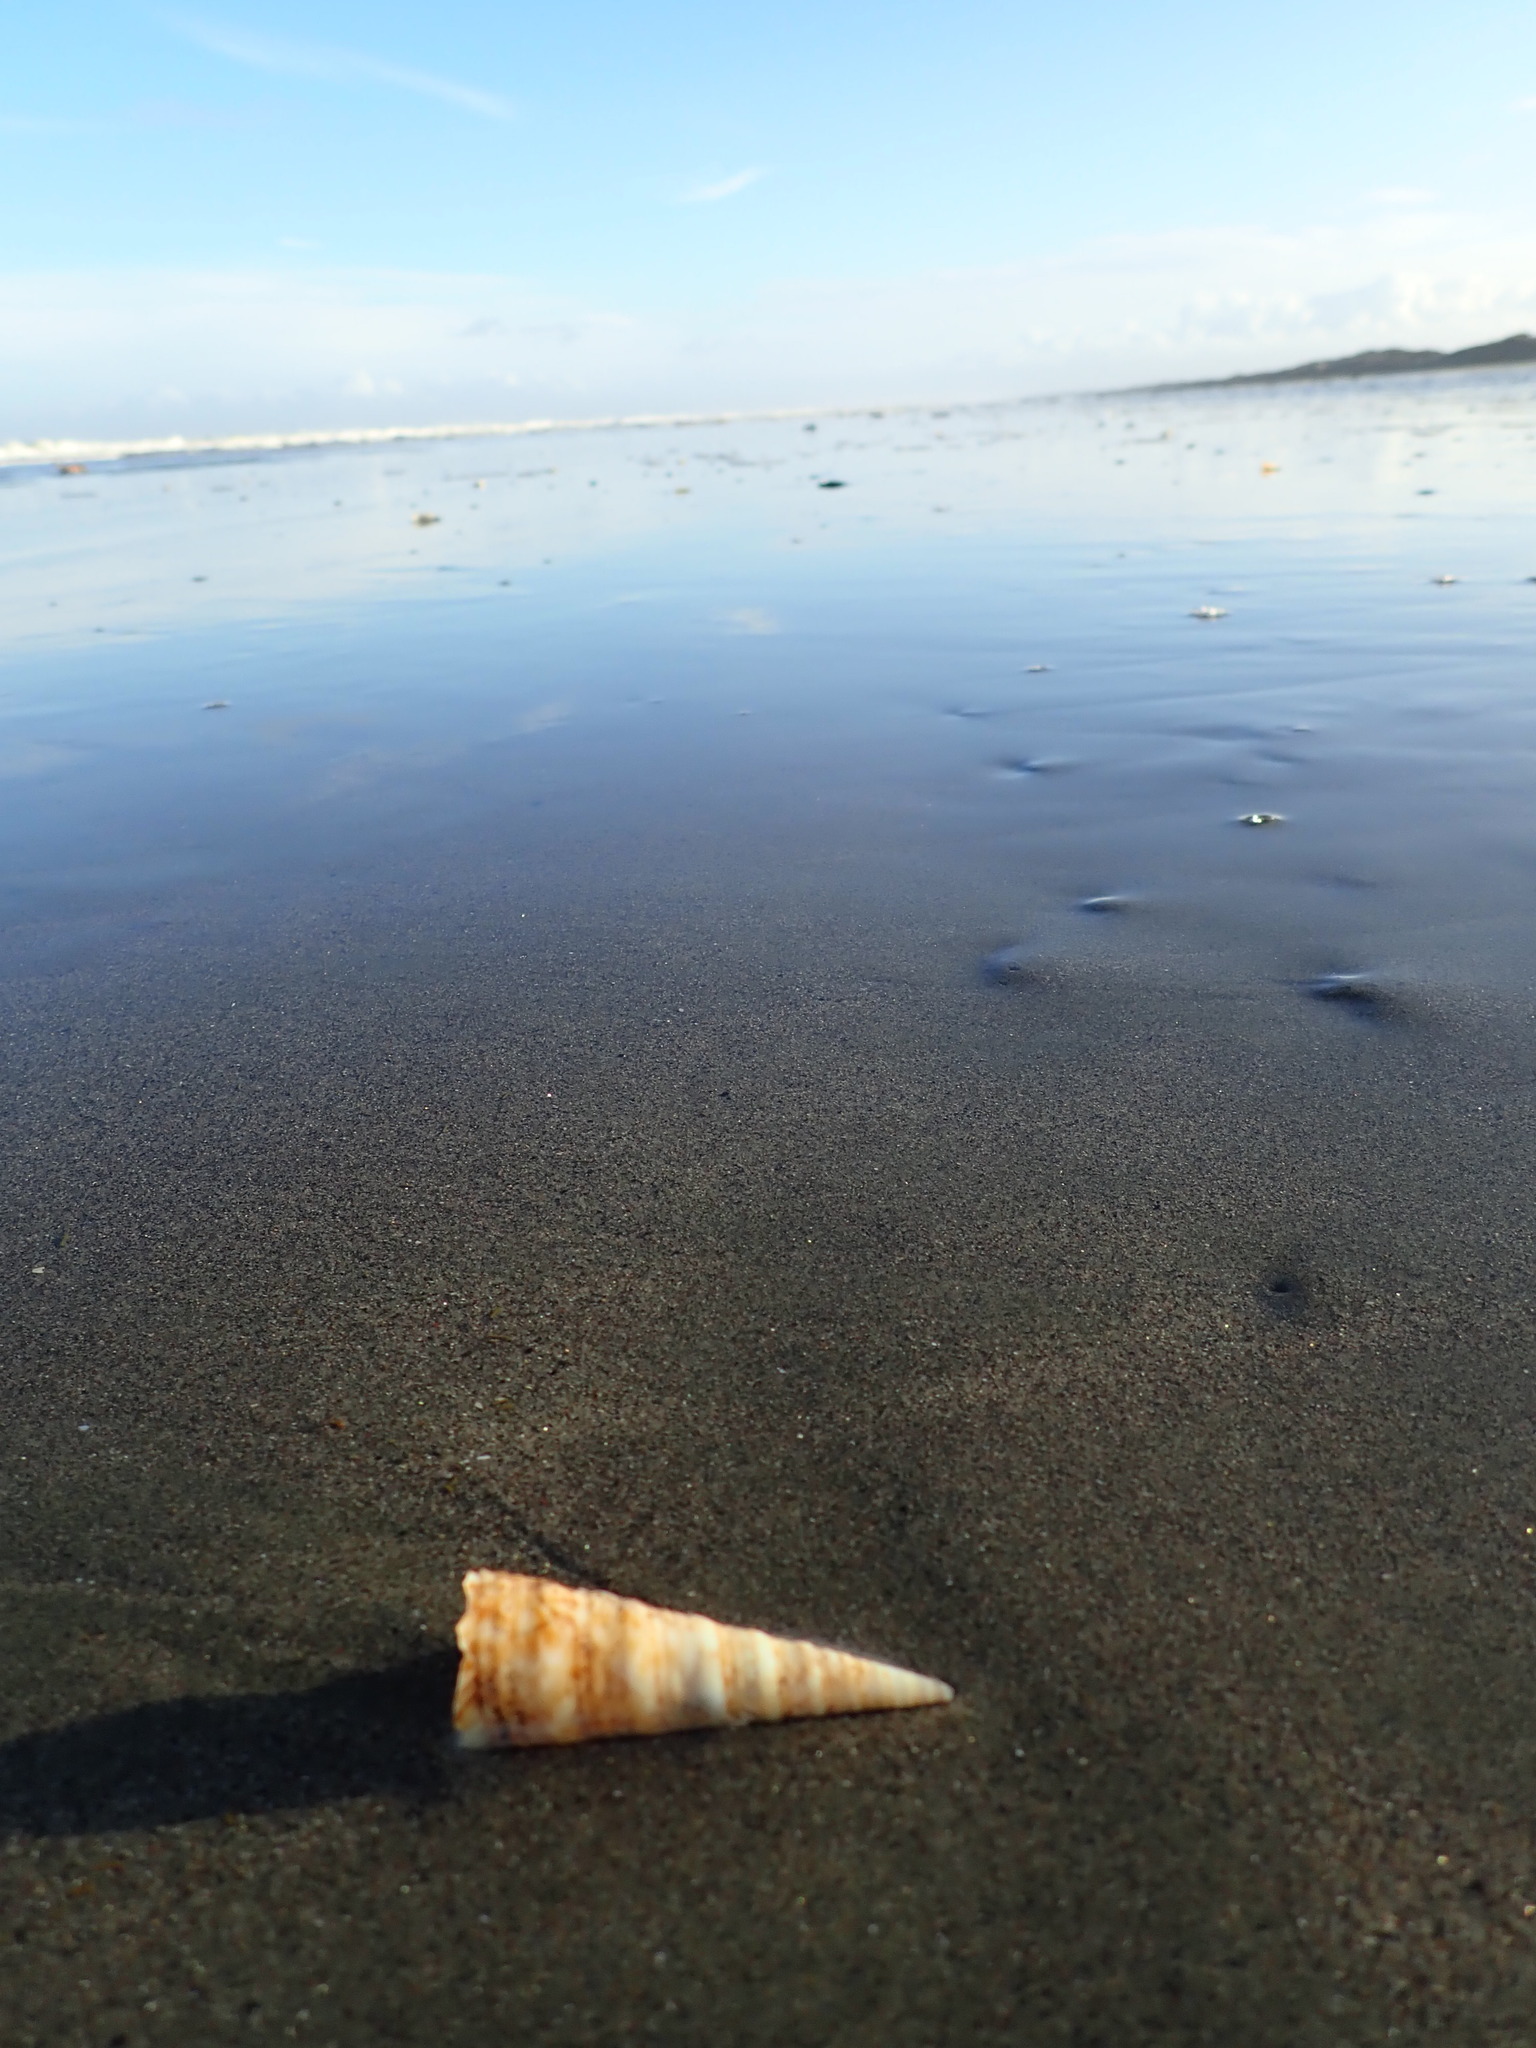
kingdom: Animalia
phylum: Mollusca
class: Gastropoda
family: Turritellidae
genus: Maoricolpus
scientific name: Maoricolpus roseus
